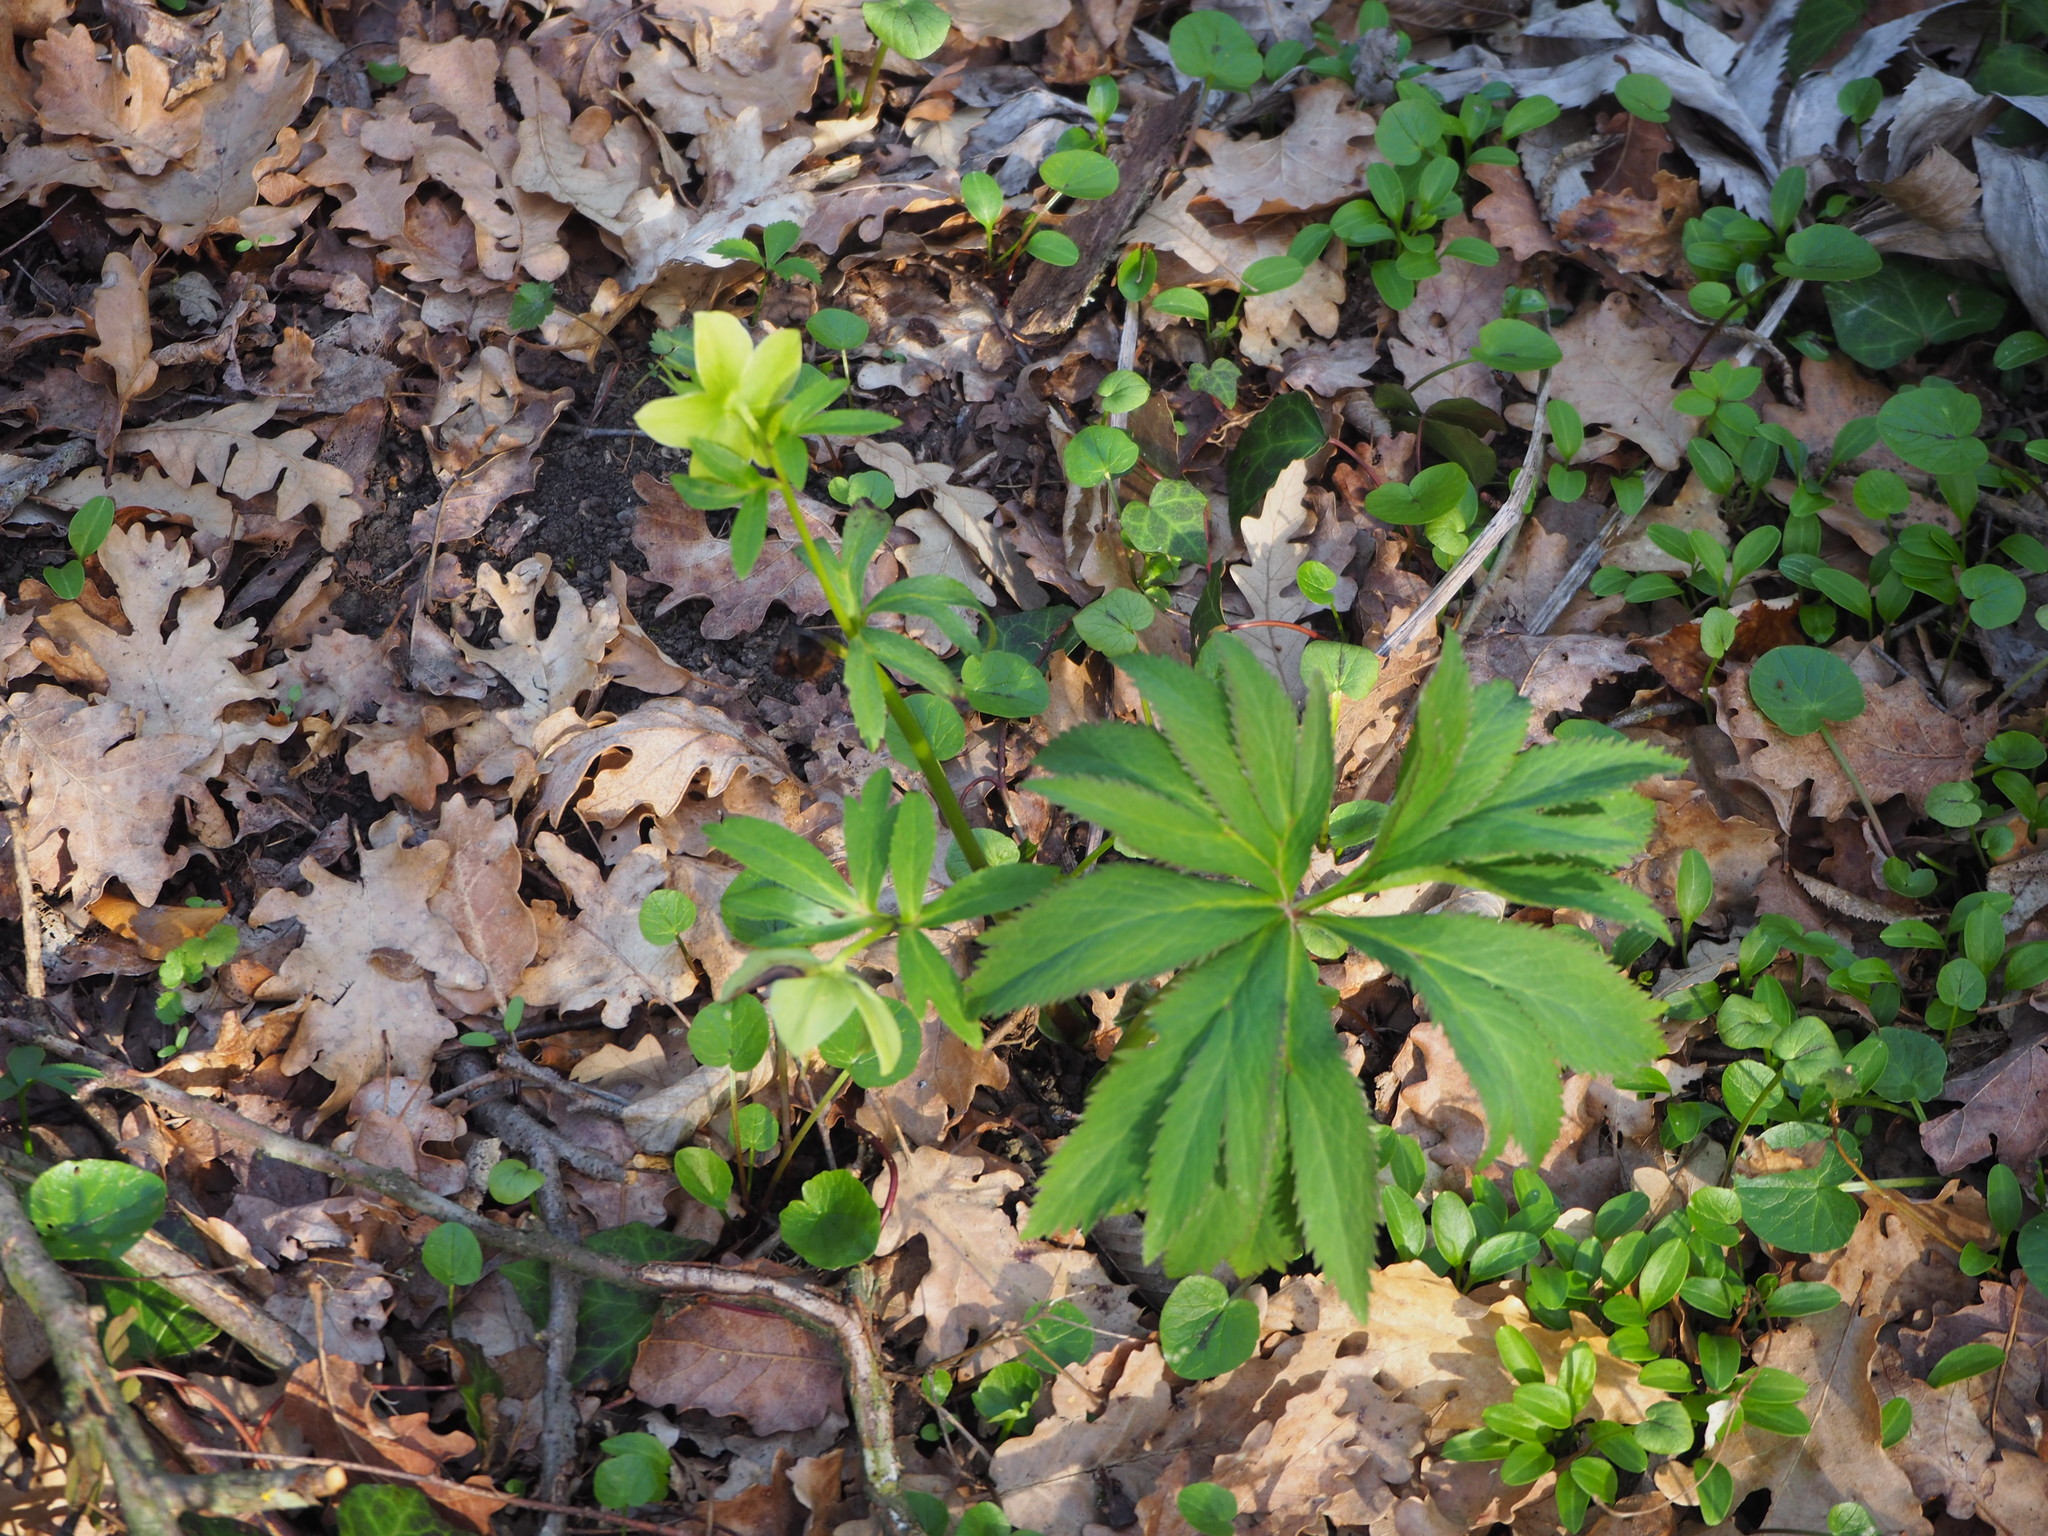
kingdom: Plantae
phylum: Tracheophyta
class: Magnoliopsida
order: Ranunculales
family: Ranunculaceae
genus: Helleborus
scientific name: Helleborus viridis
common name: Green hellebore
